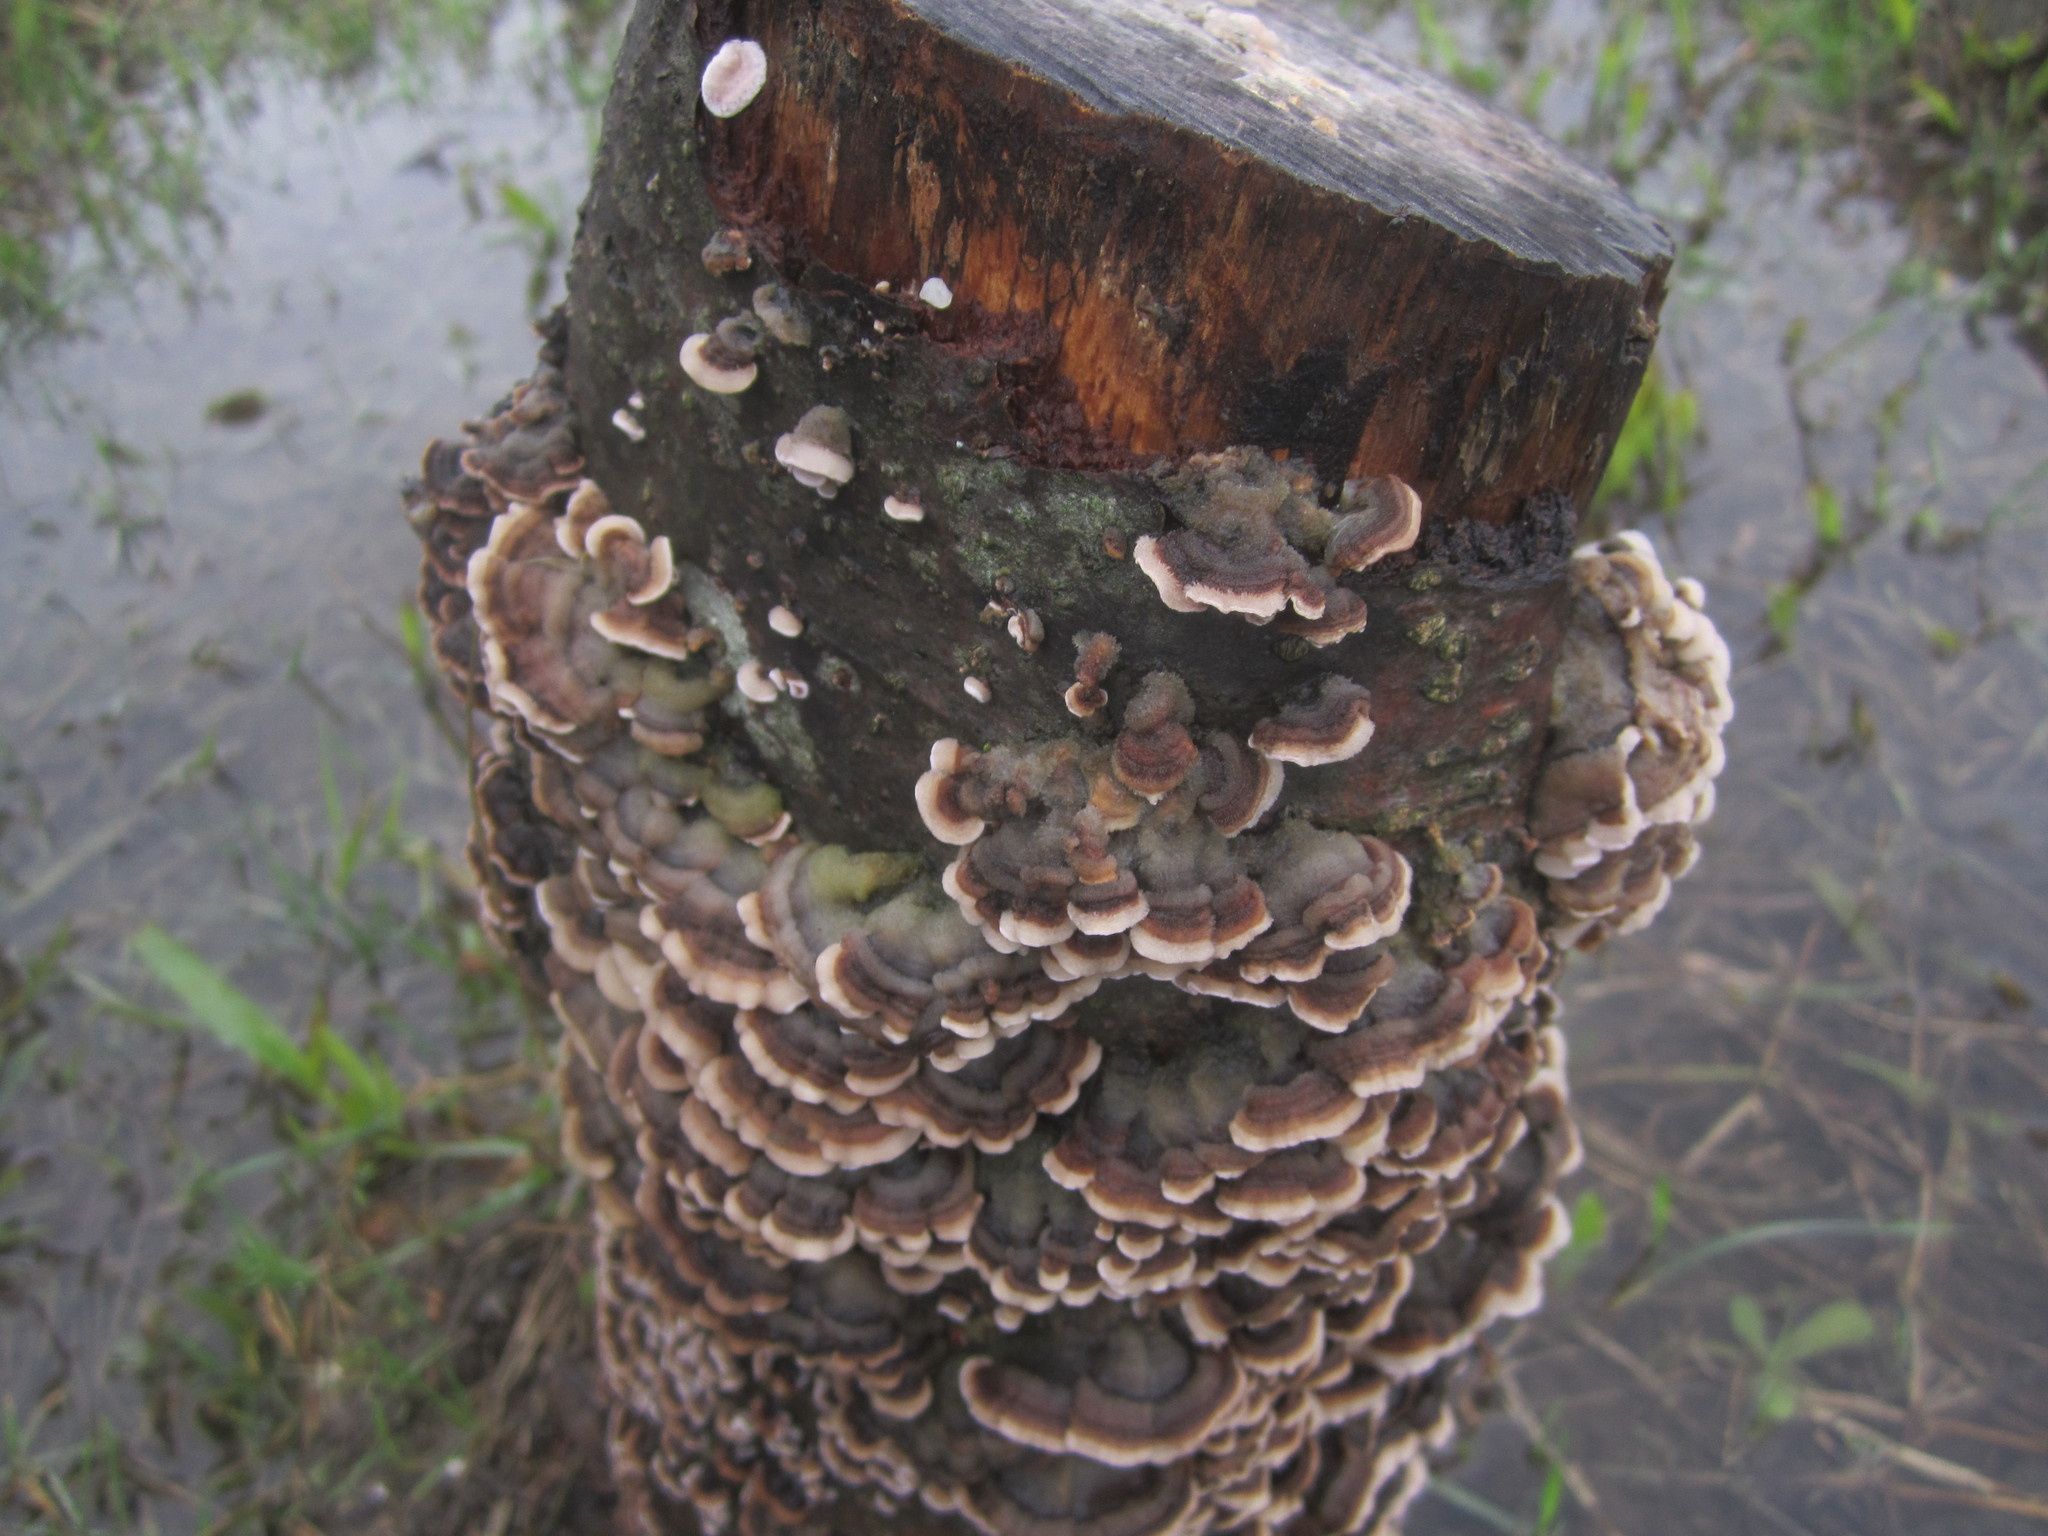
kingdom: Fungi
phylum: Basidiomycota
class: Agaricomycetes
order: Polyporales
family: Polyporaceae
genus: Trametes
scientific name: Trametes versicolor
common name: Turkeytail
